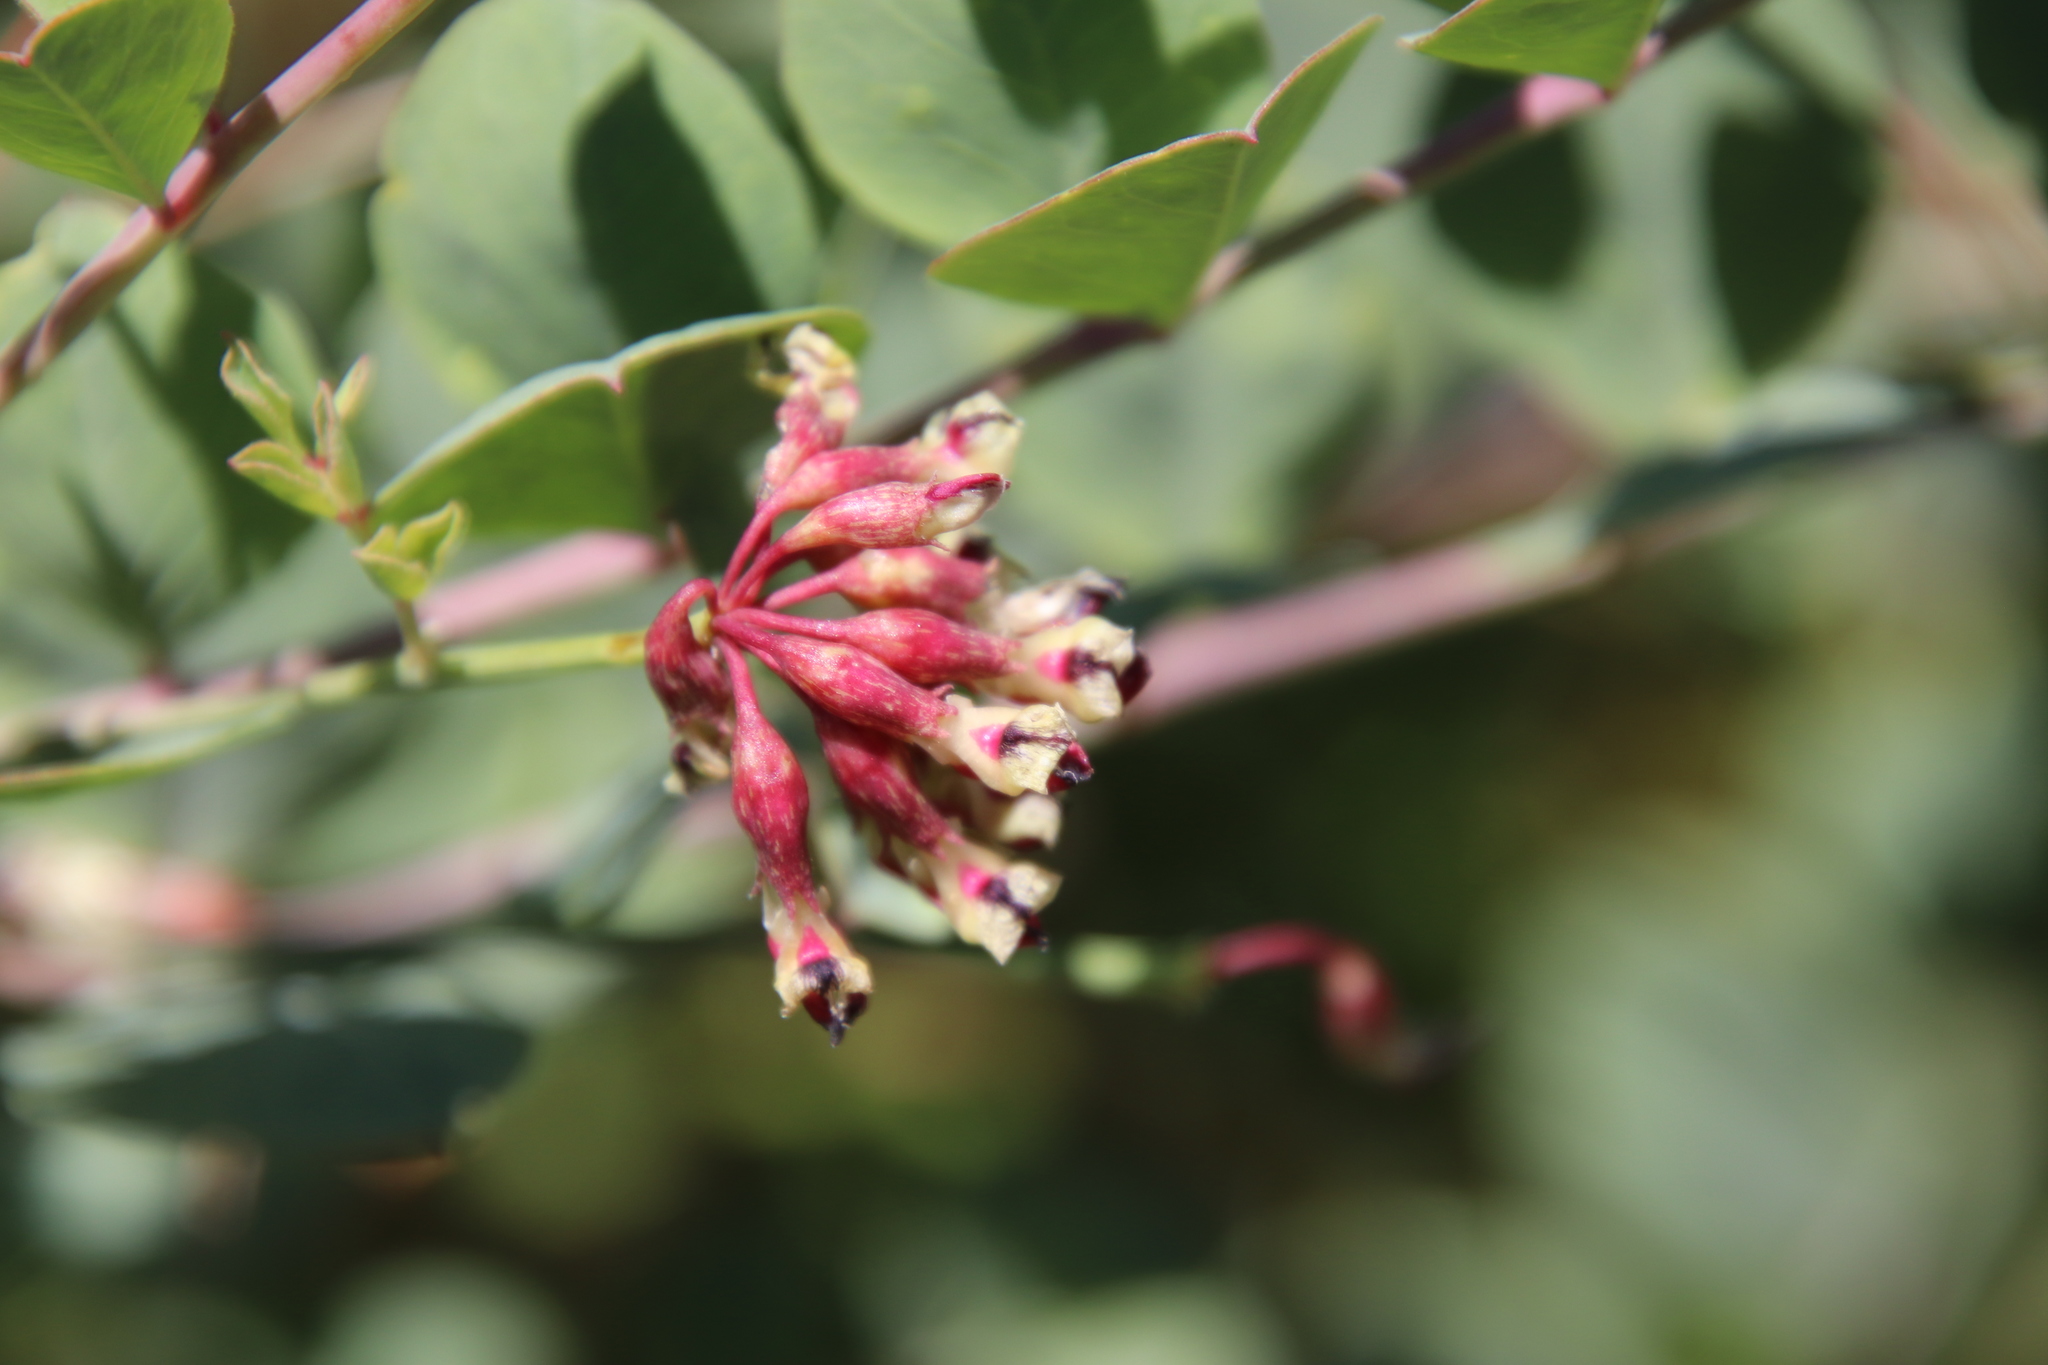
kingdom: Plantae
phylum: Tracheophyta
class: Magnoliopsida
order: Fabales
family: Fabaceae
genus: Hosackia
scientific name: Hosackia crassifolia
